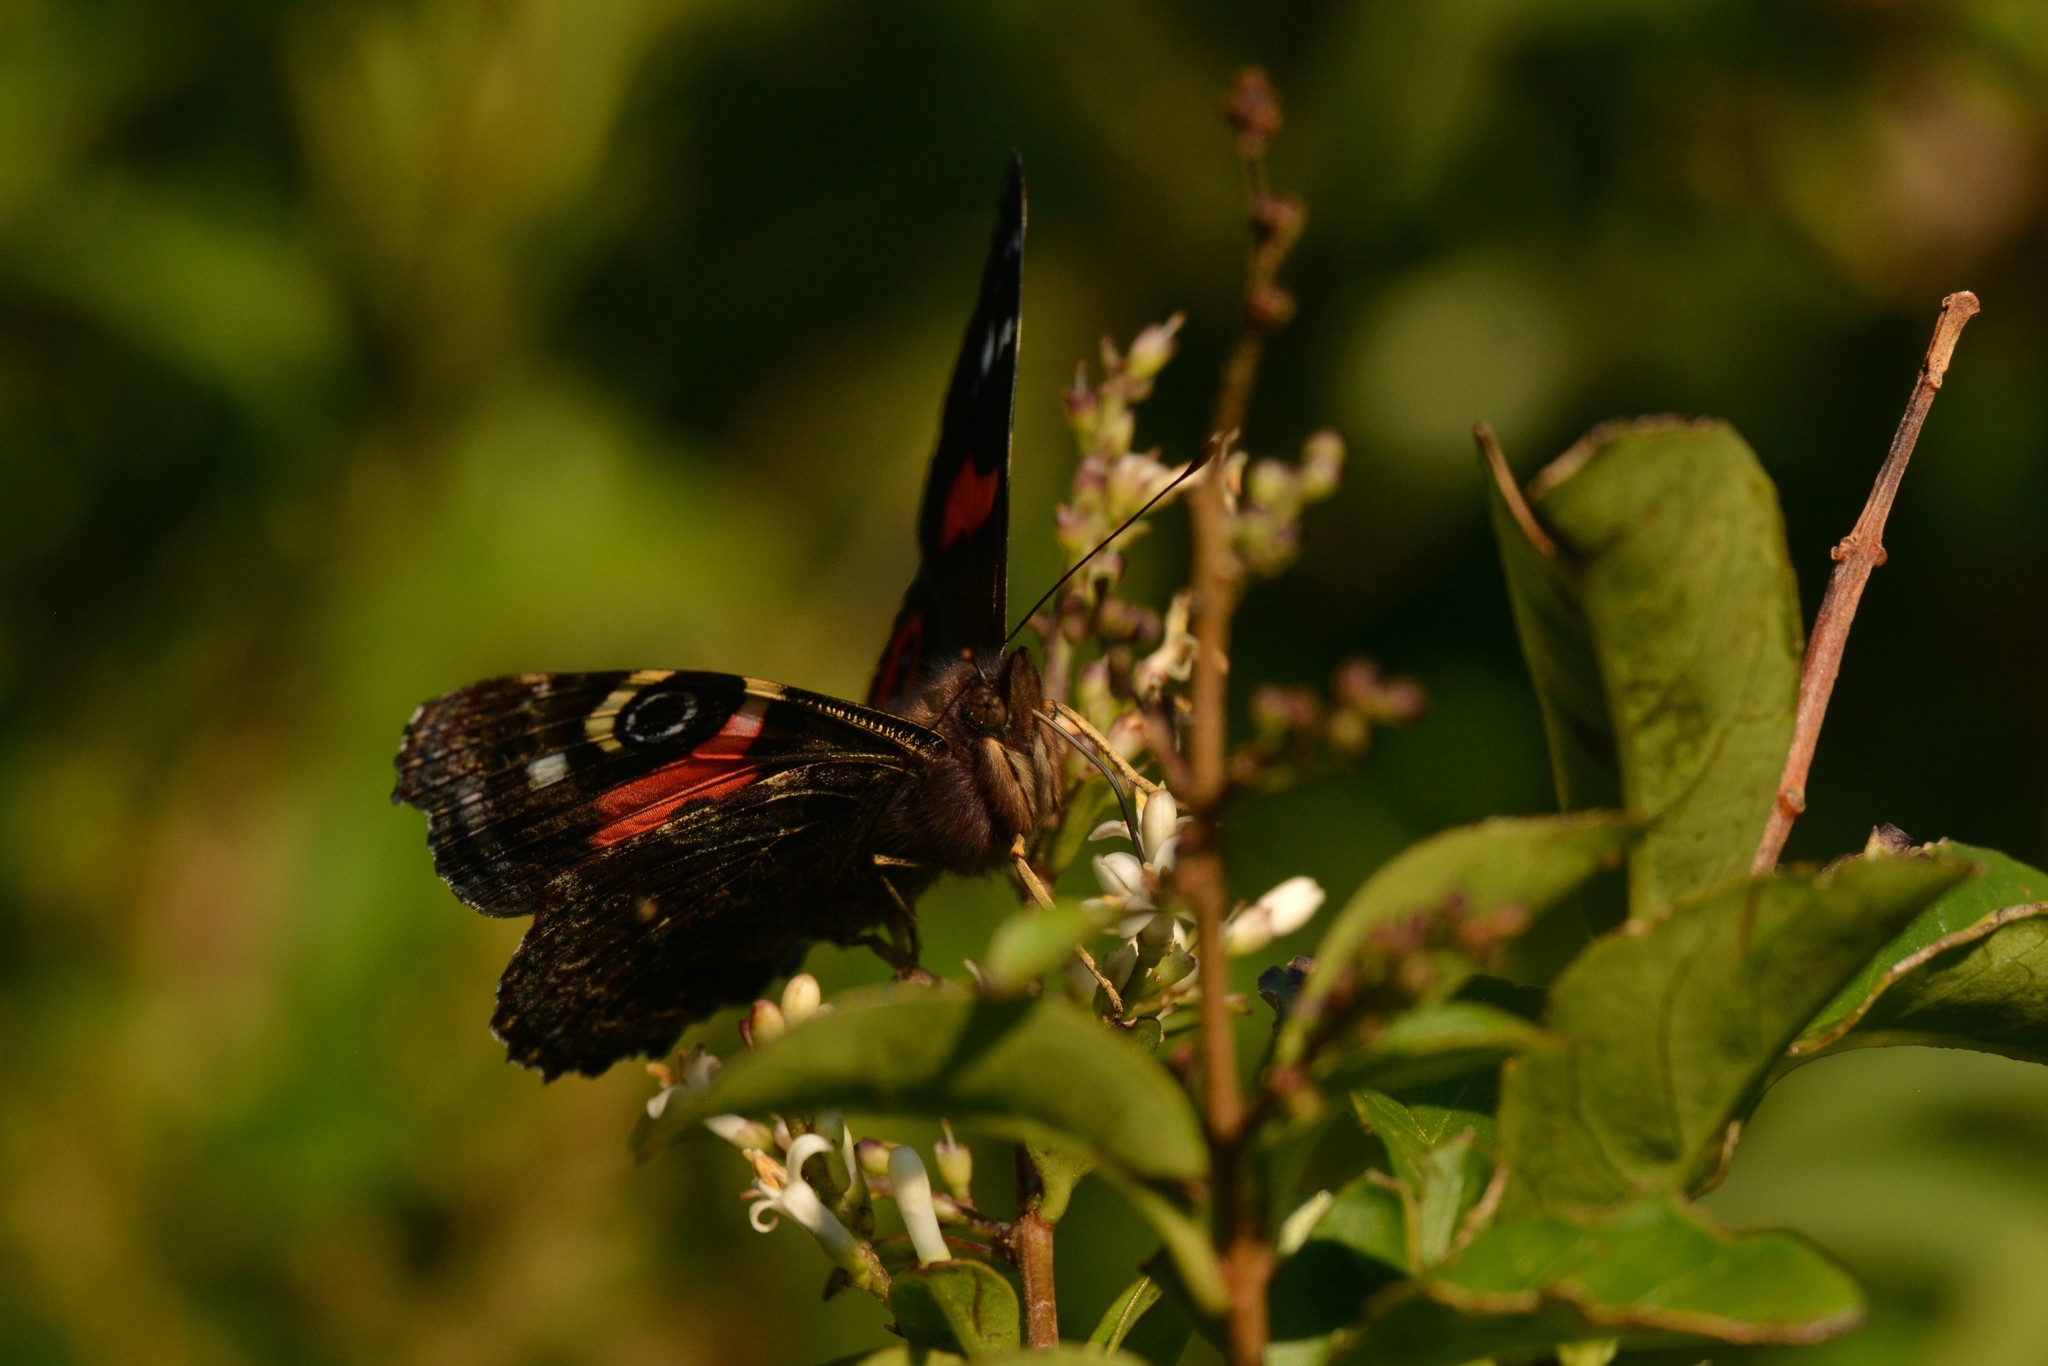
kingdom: Animalia
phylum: Arthropoda
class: Insecta
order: Lepidoptera
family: Nymphalidae
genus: Vanessa
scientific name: Vanessa gonerilla
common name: New zealand red admiral
